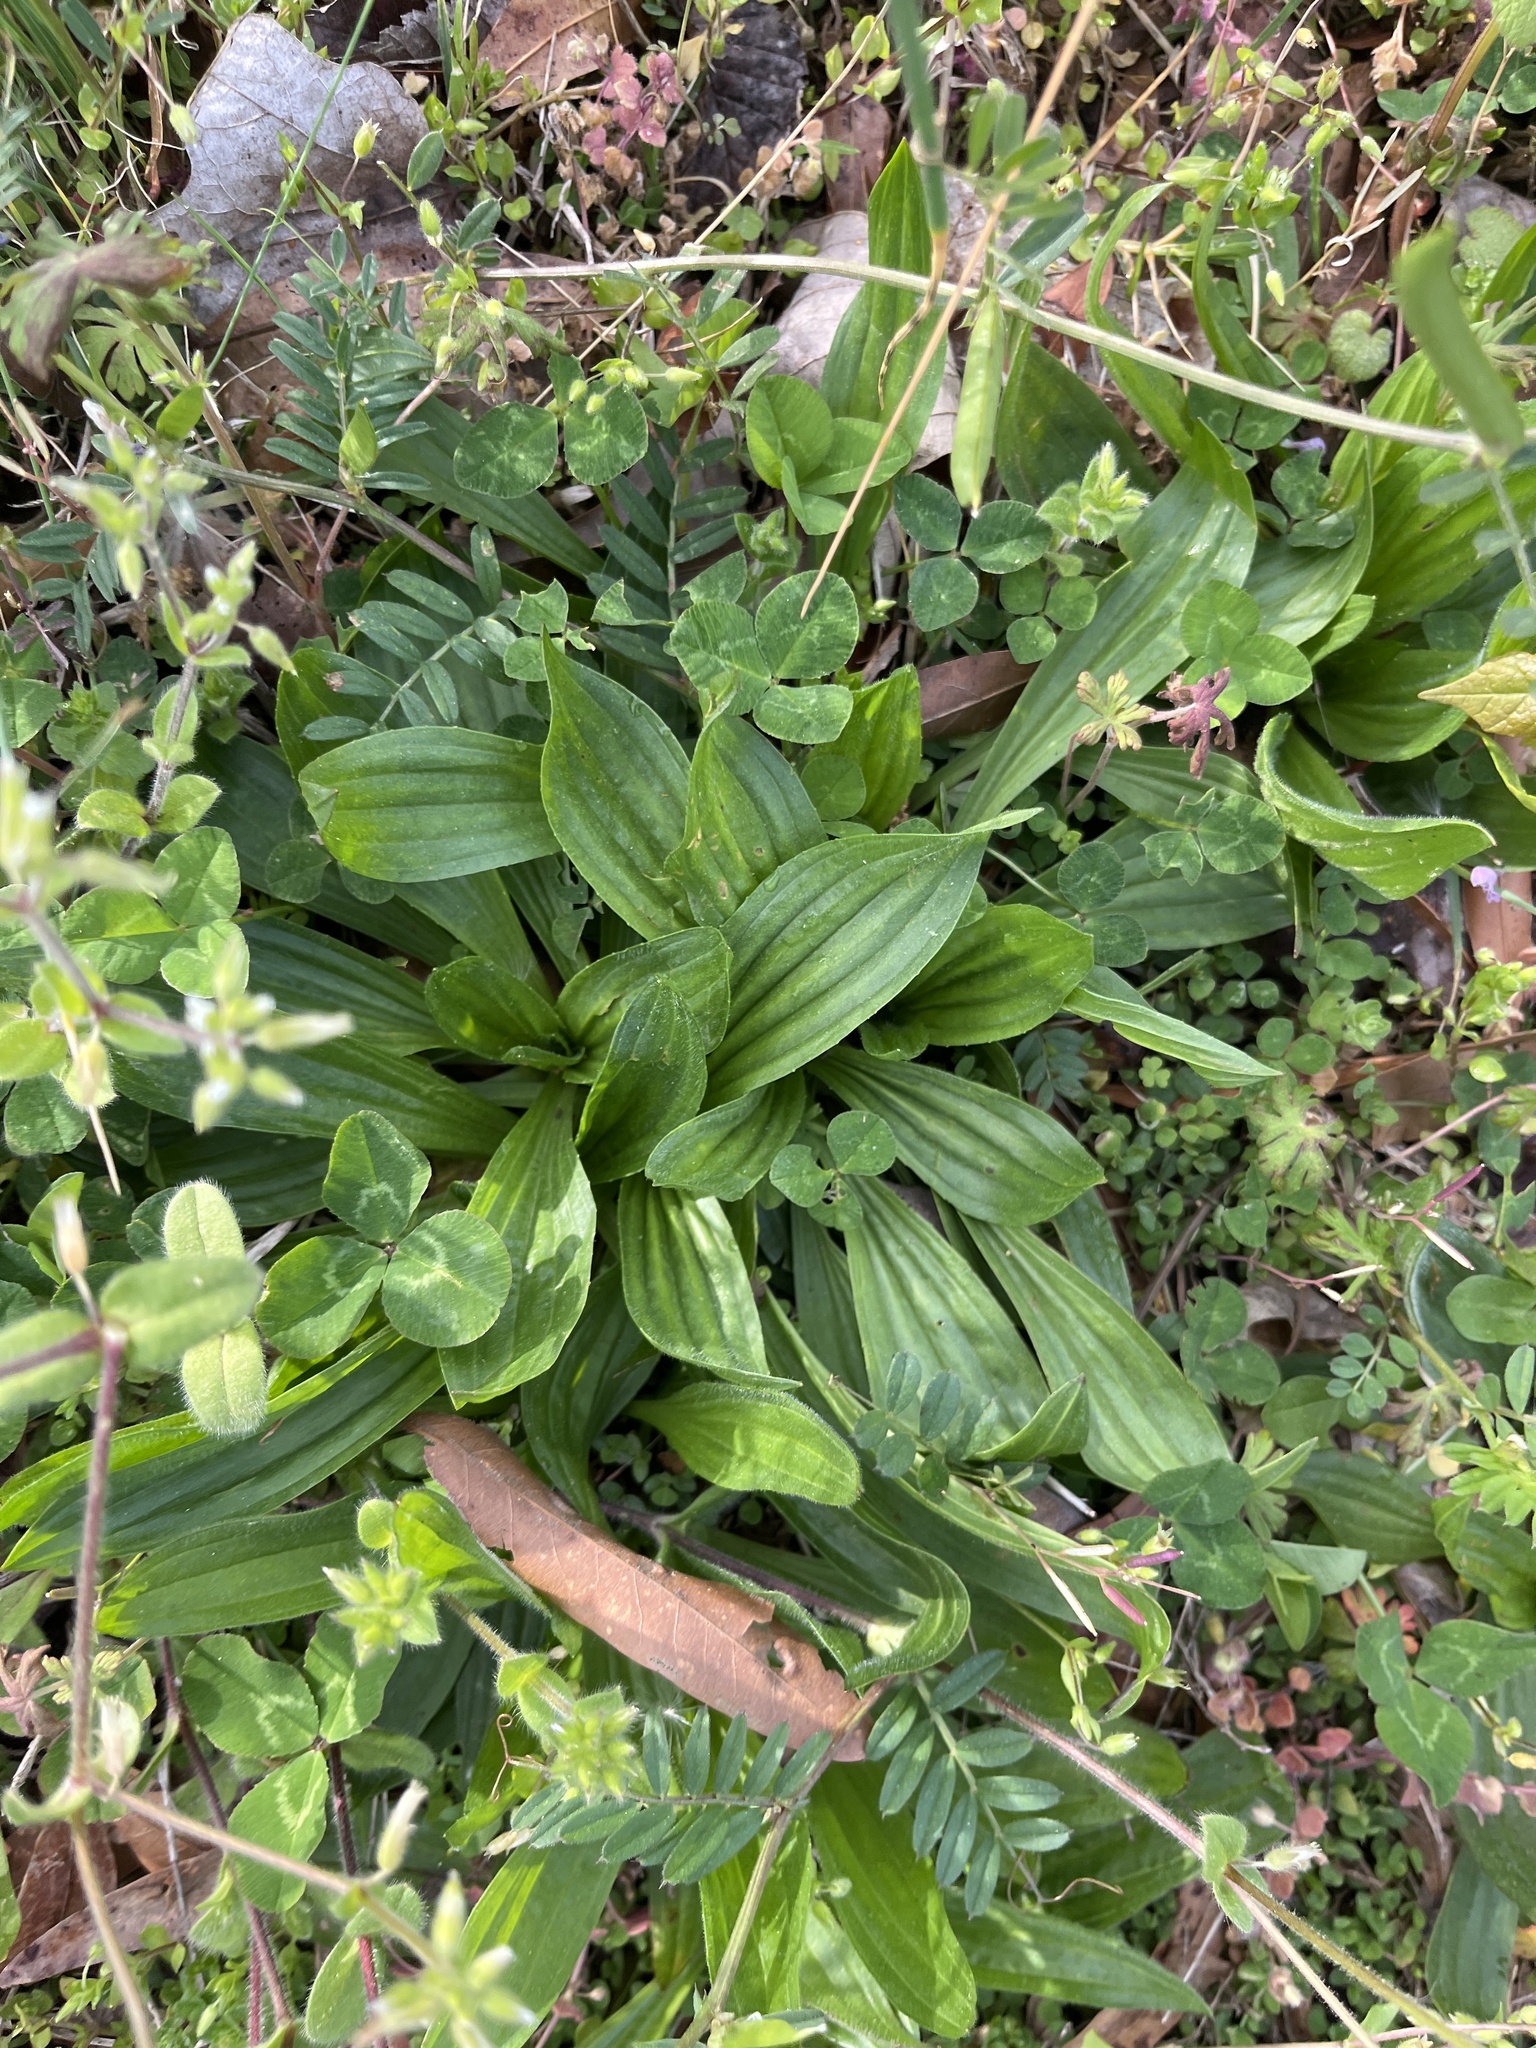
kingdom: Plantae
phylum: Tracheophyta
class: Magnoliopsida
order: Lamiales
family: Plantaginaceae
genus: Plantago
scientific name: Plantago lanceolata
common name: Ribwort plantain
